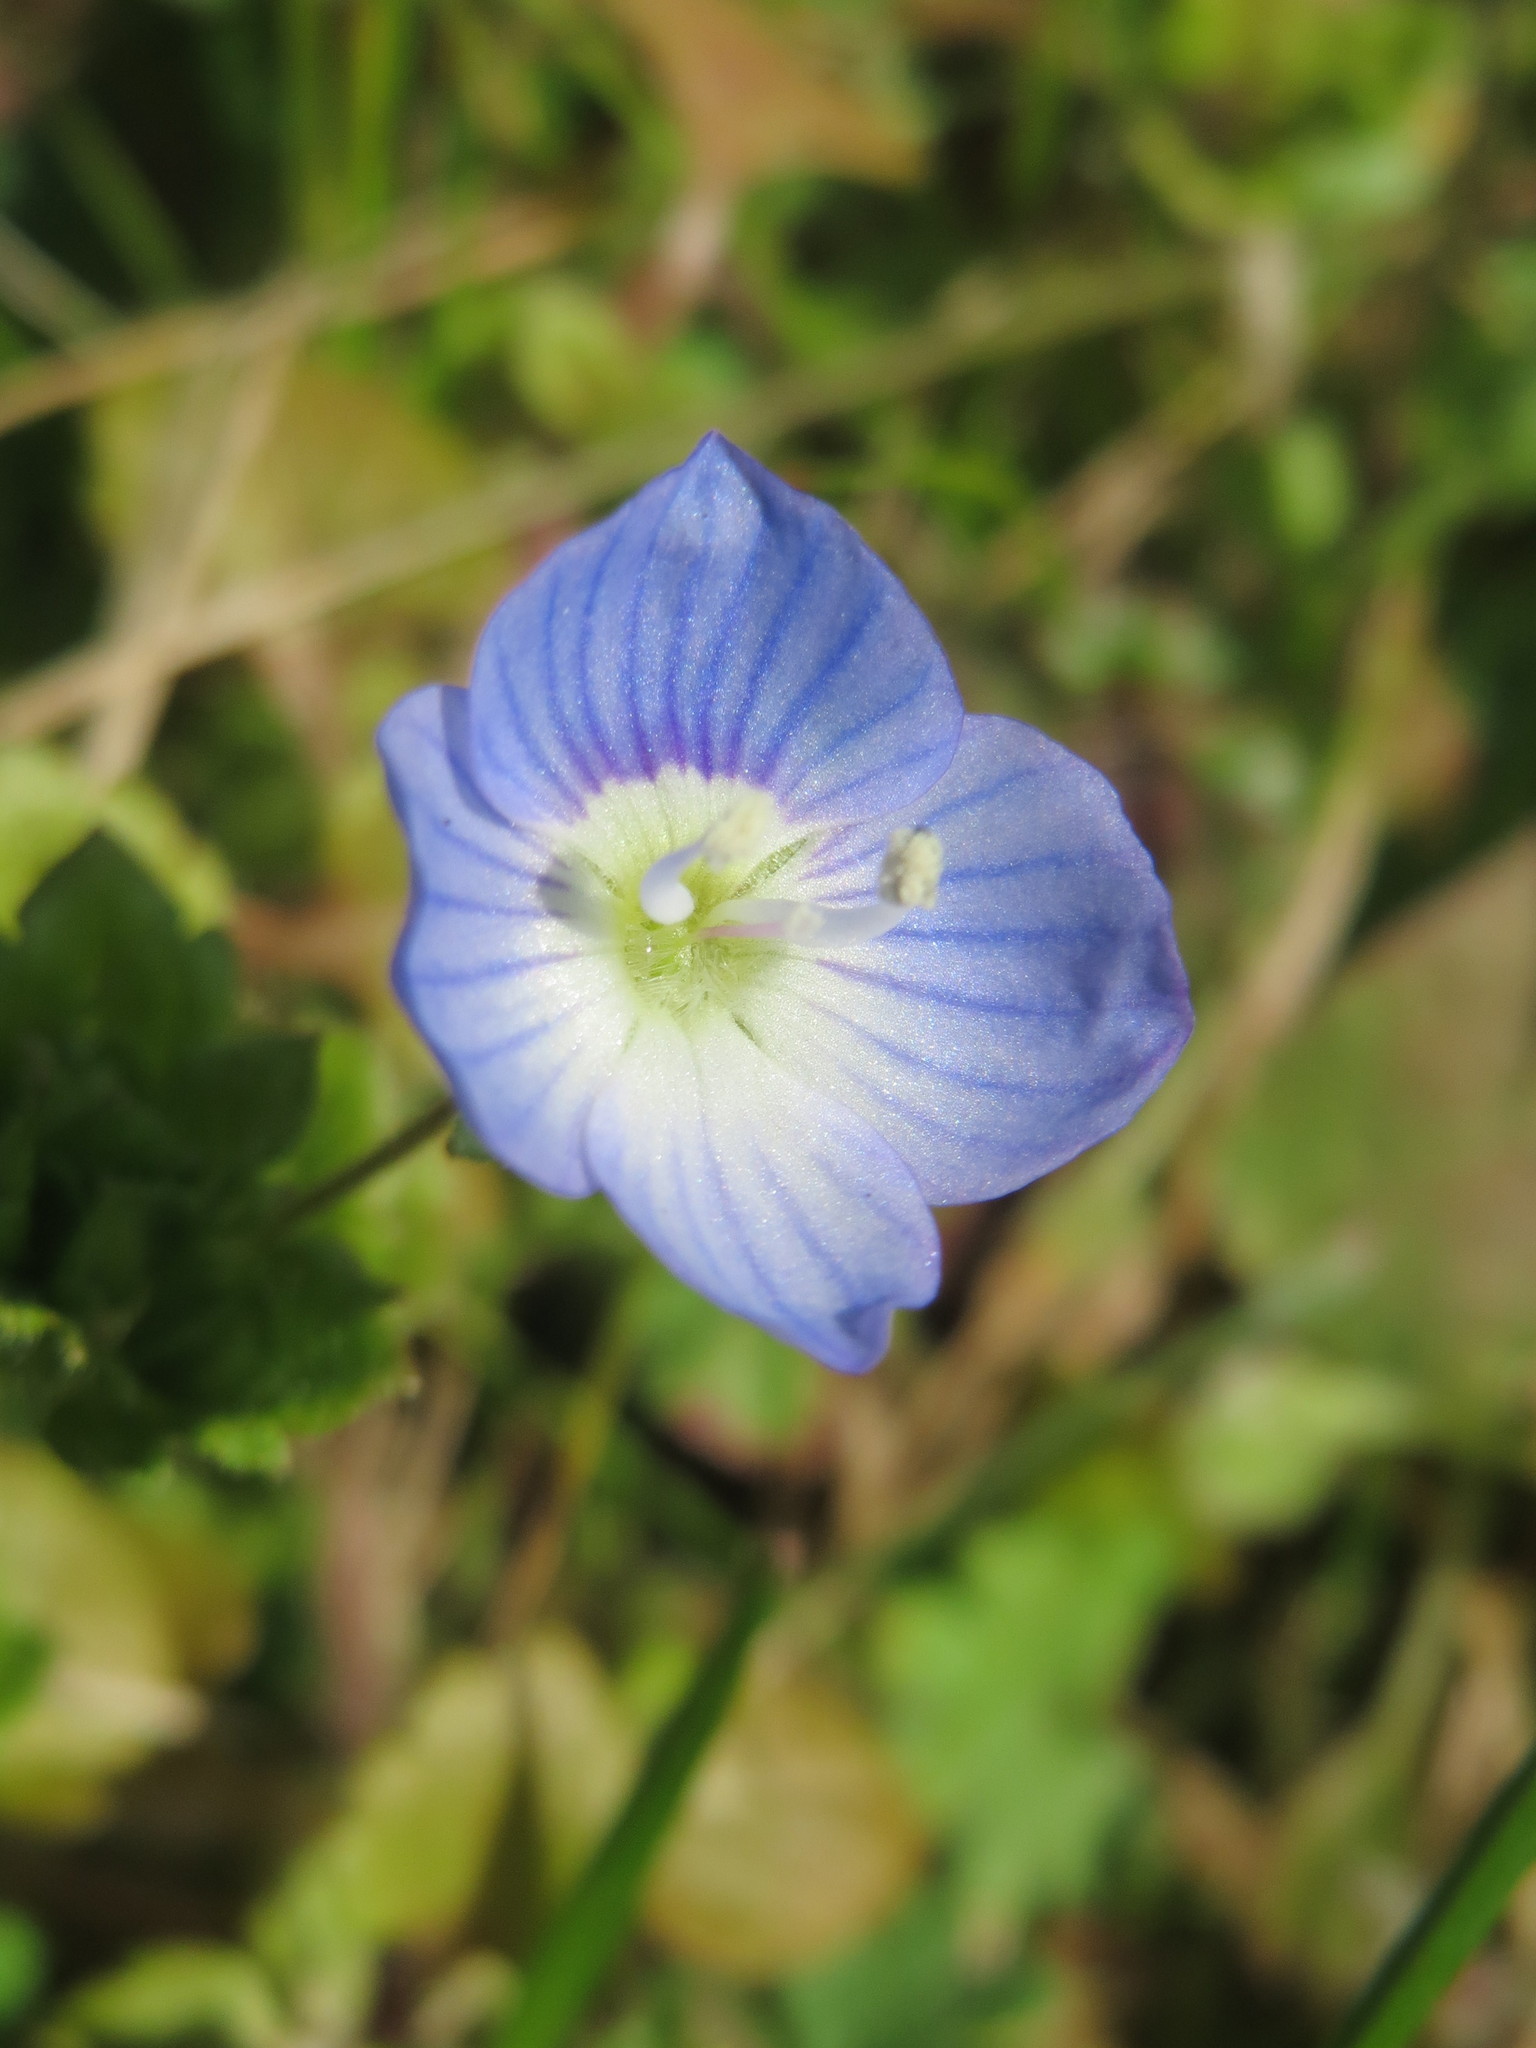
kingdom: Plantae
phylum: Tracheophyta
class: Magnoliopsida
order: Lamiales
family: Plantaginaceae
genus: Veronica
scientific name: Veronica persica
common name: Common field-speedwell
